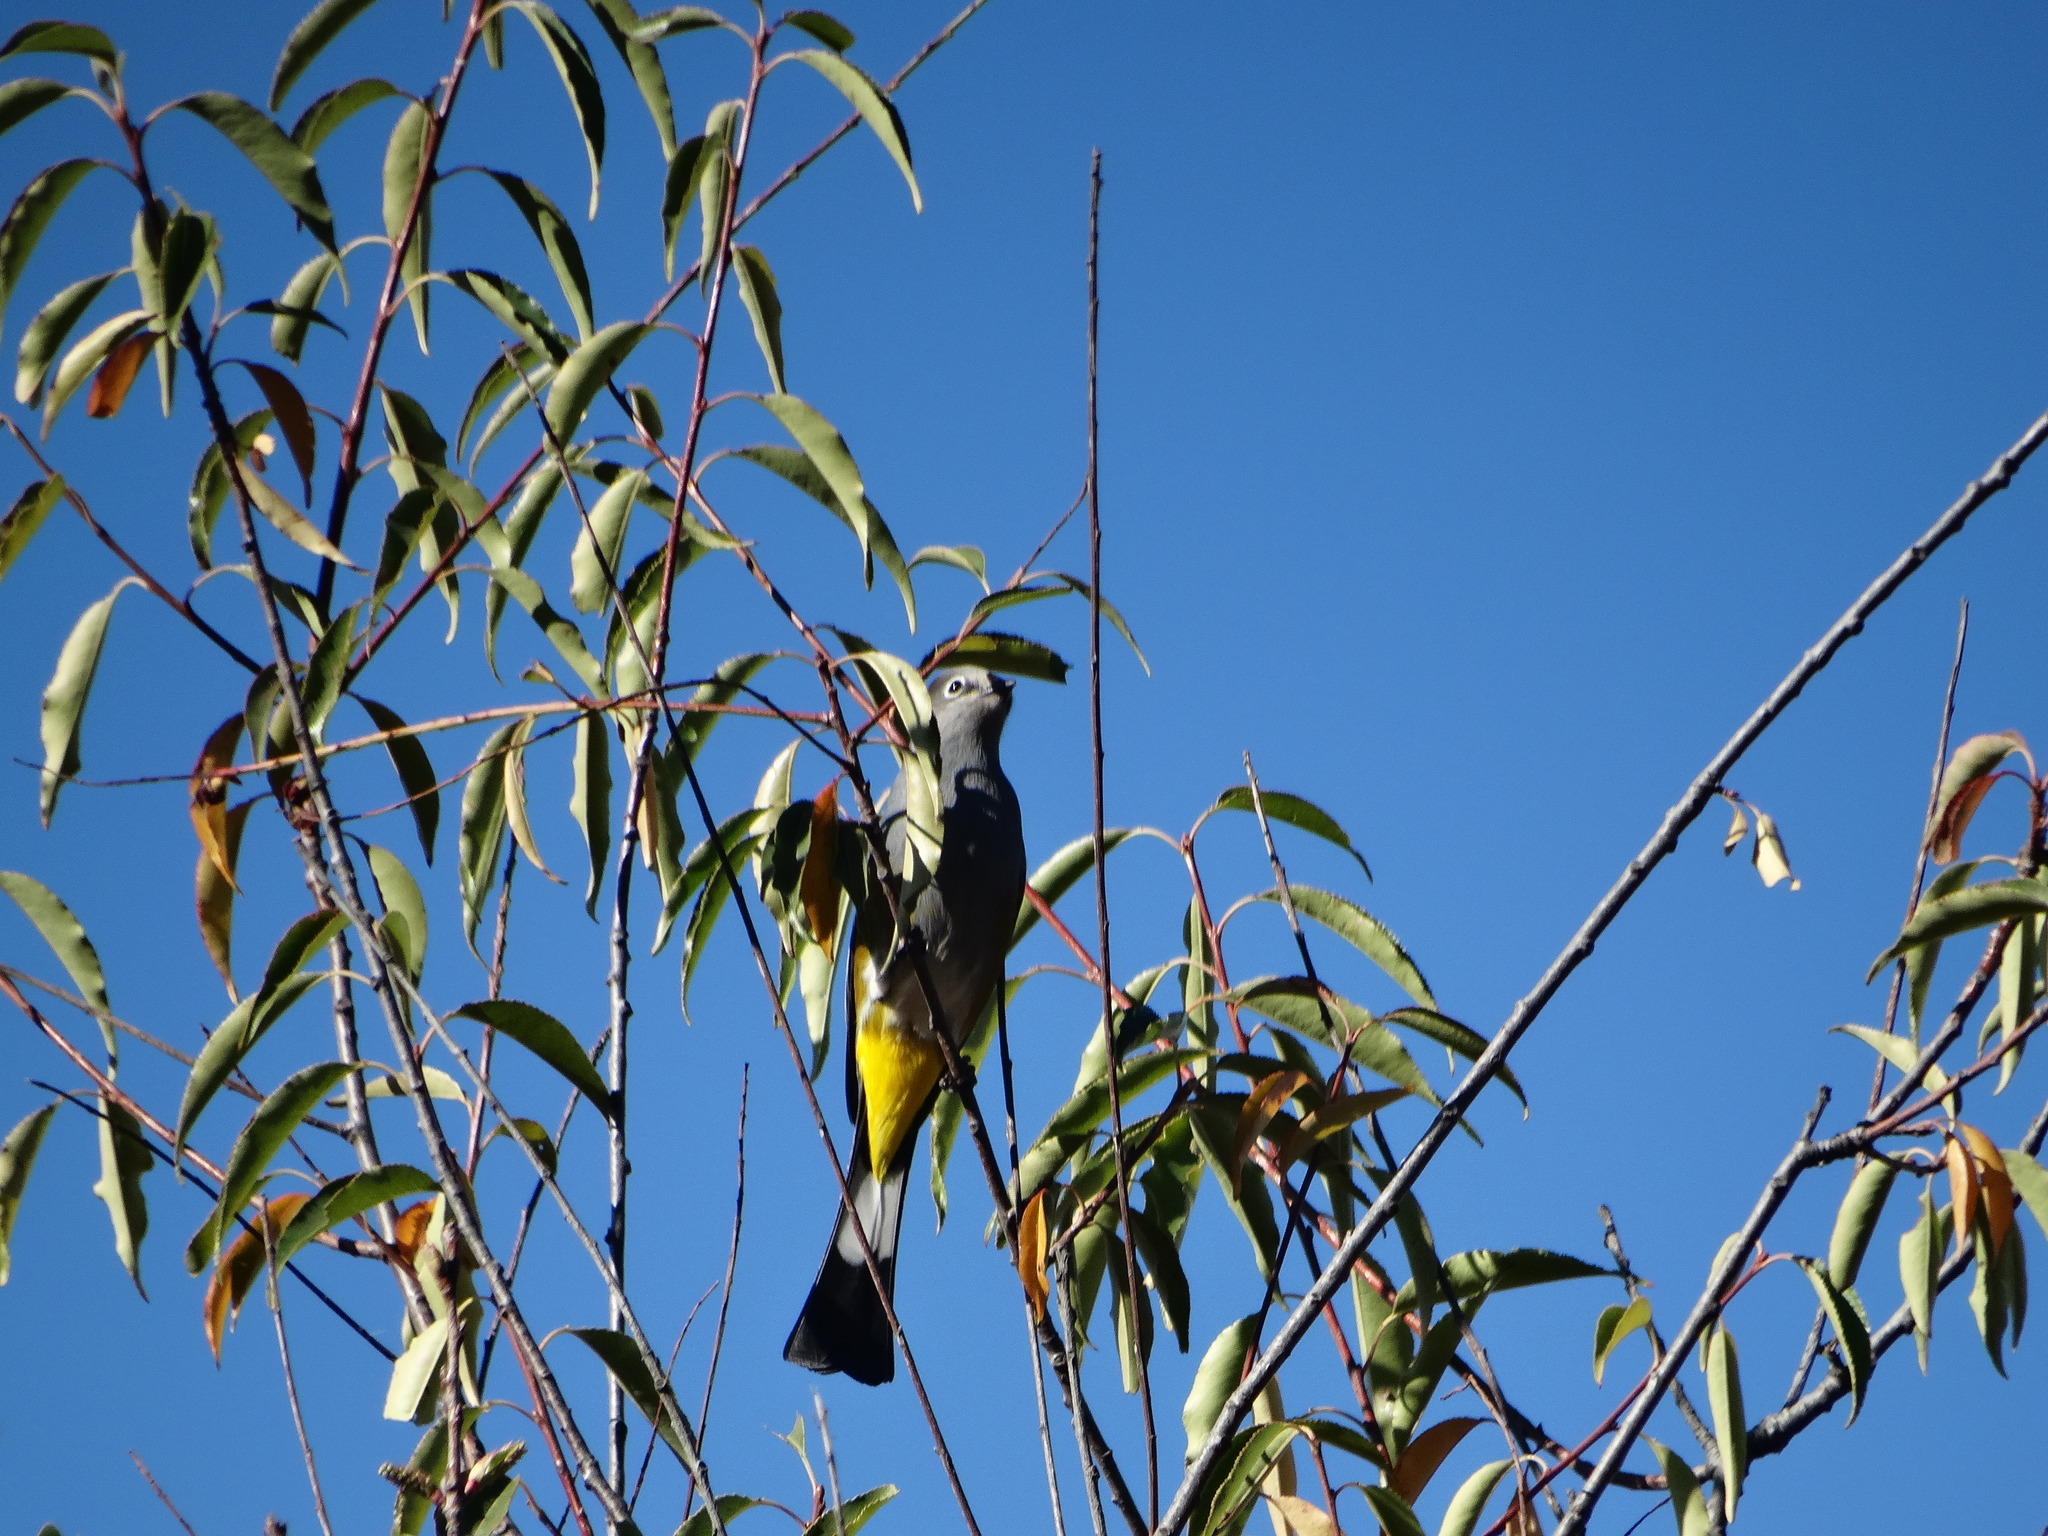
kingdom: Animalia
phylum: Chordata
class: Aves
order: Passeriformes
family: Ptilogonatidae
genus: Ptilogonys
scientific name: Ptilogonys cinereus
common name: Gray silky-flycatcher
